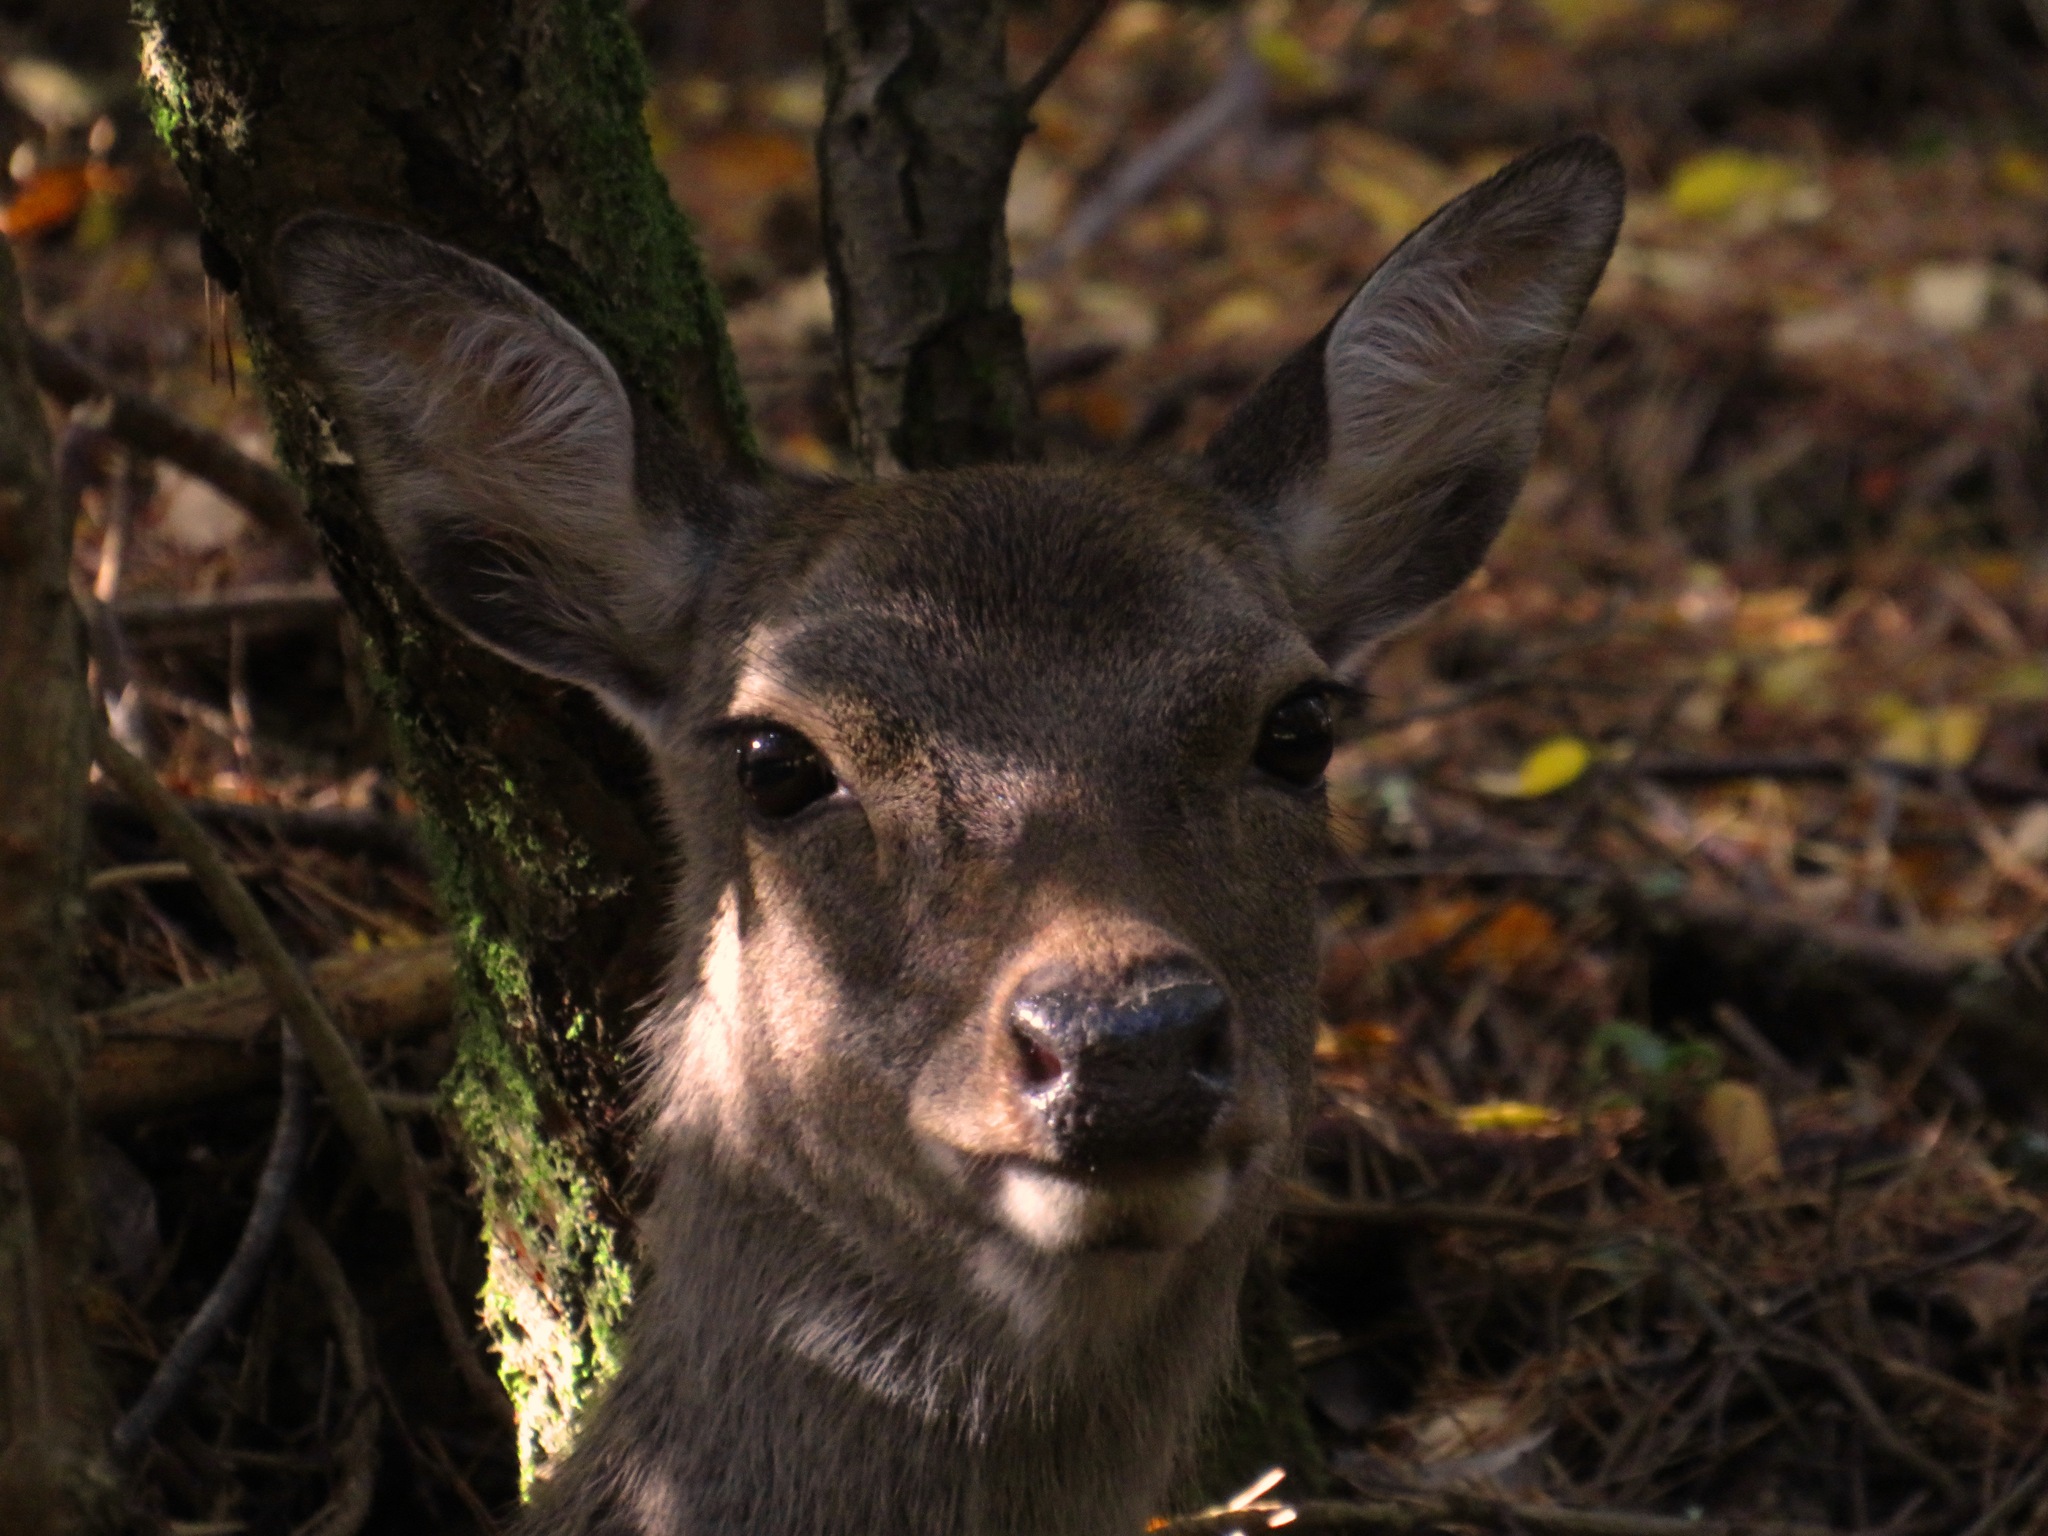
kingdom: Animalia
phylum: Chordata
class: Mammalia
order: Artiodactyla
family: Cervidae
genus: Cervus
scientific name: Cervus nippon
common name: Sika deer
